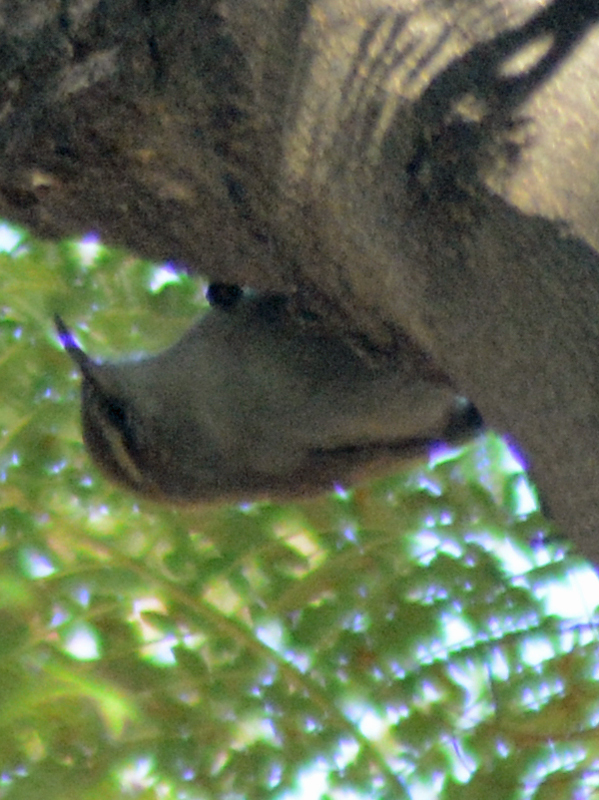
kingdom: Animalia
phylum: Chordata
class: Aves
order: Passeriformes
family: Troglodytidae
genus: Thryomanes
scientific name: Thryomanes bewickii
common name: Bewick's wren
